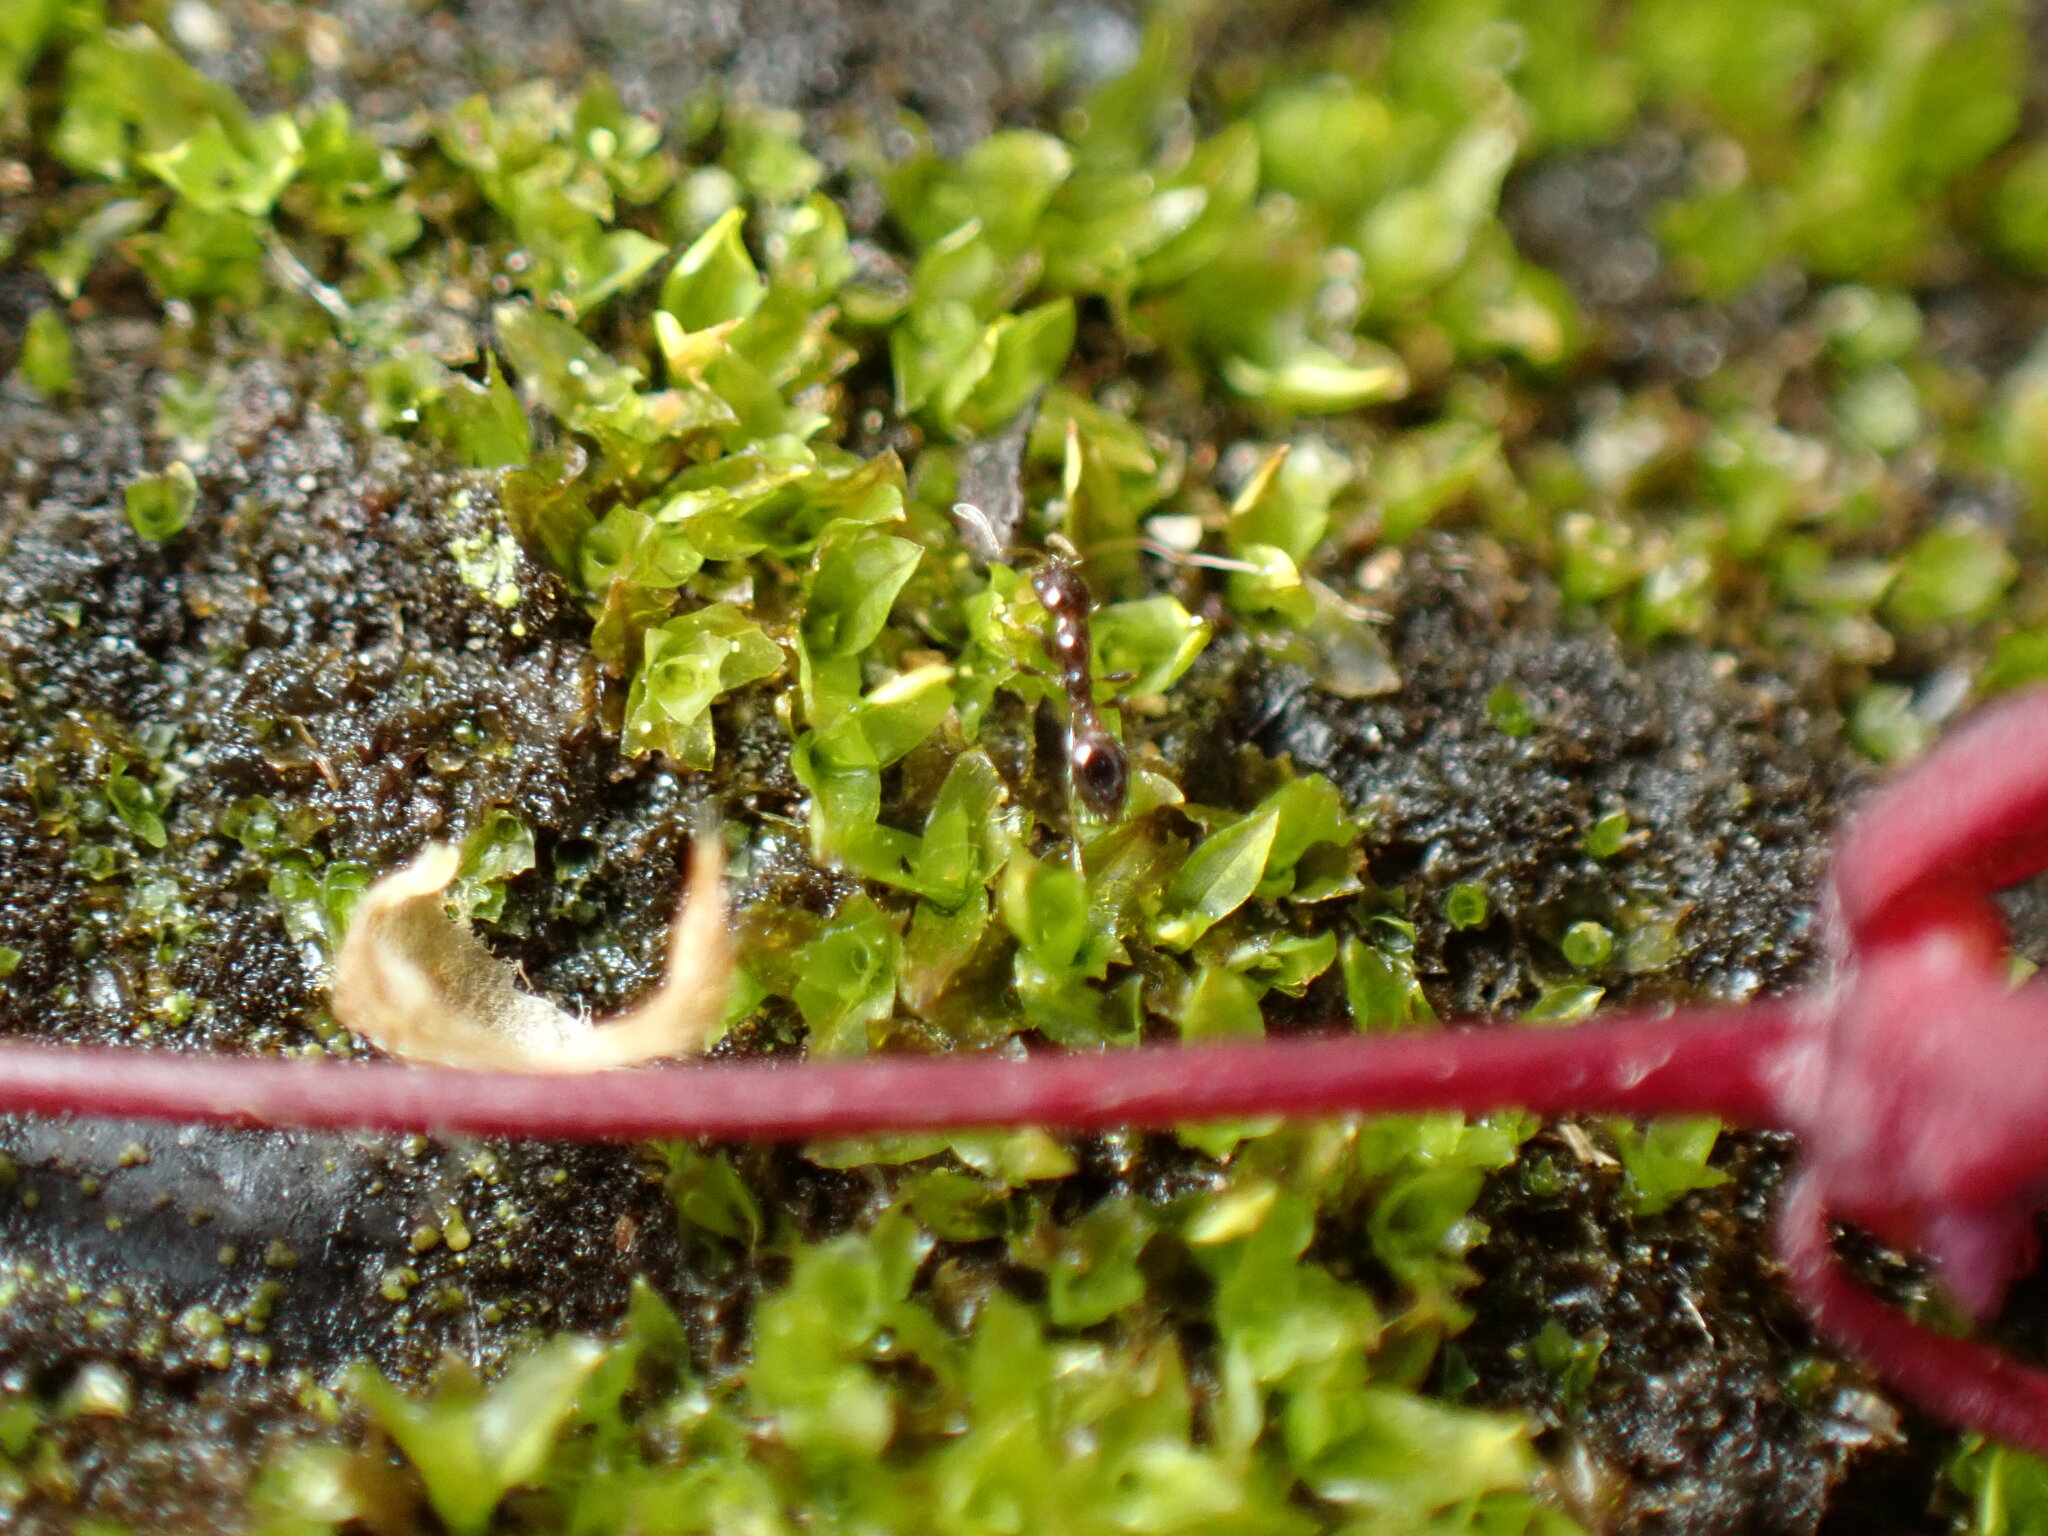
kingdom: Animalia
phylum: Arthropoda
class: Insecta
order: Hymenoptera
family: Formicidae
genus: Monomorium
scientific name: Monomorium chinense
